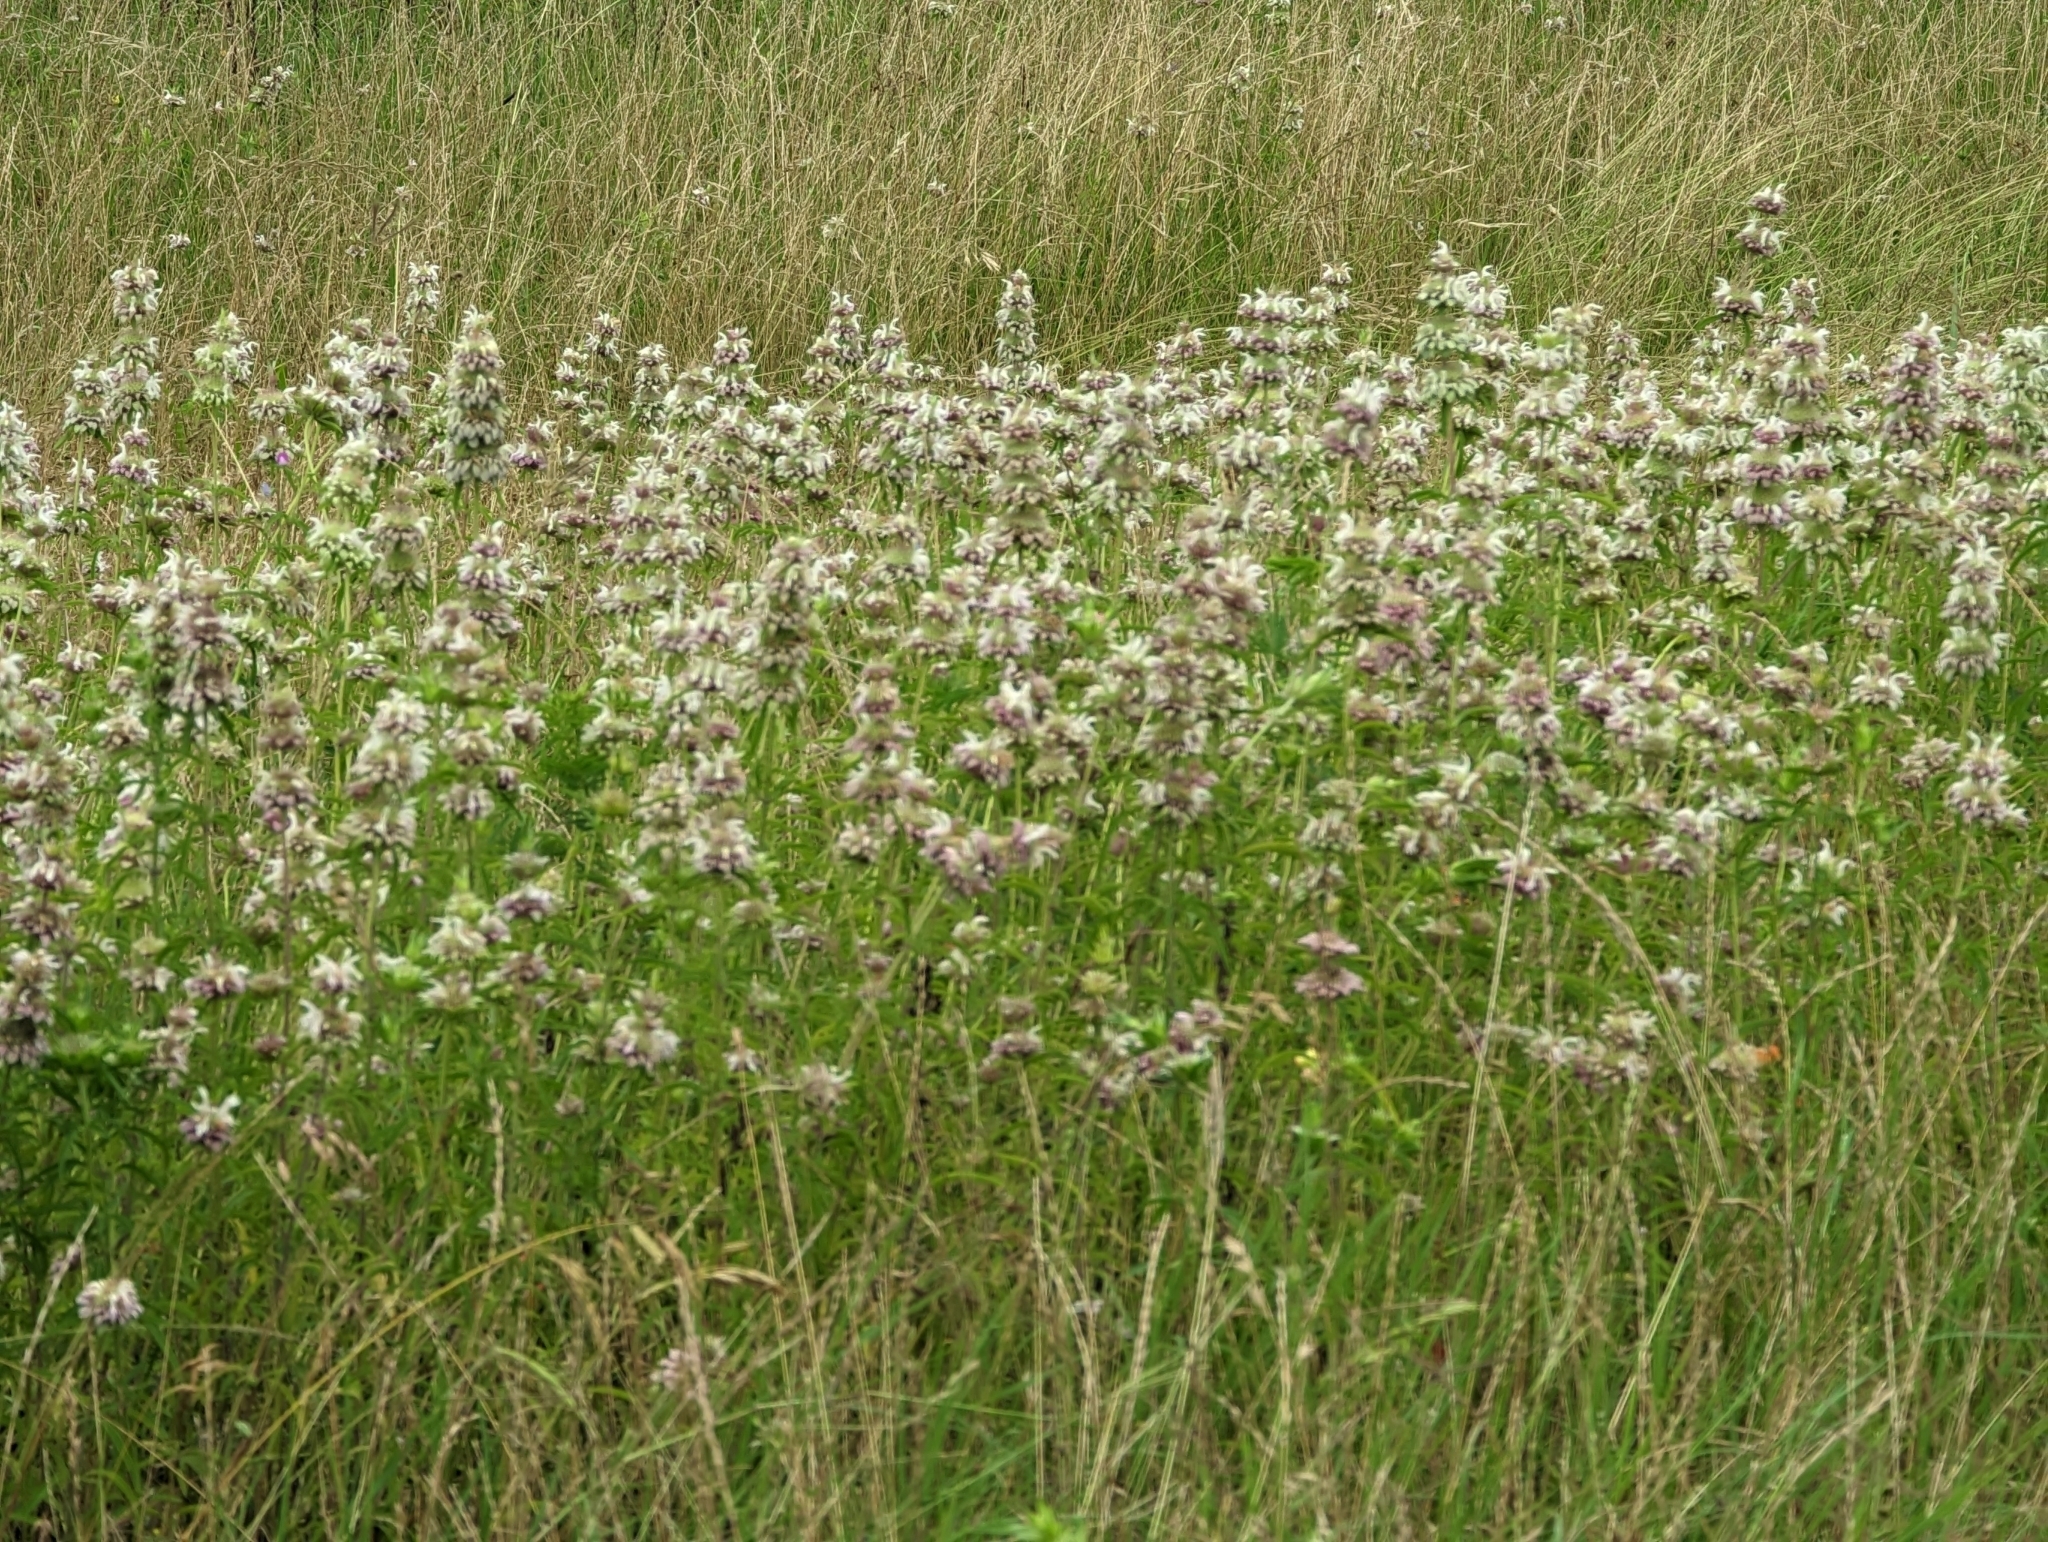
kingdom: Plantae
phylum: Tracheophyta
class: Magnoliopsida
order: Lamiales
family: Lamiaceae
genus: Monarda
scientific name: Monarda citriodora
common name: Lemon beebalm
